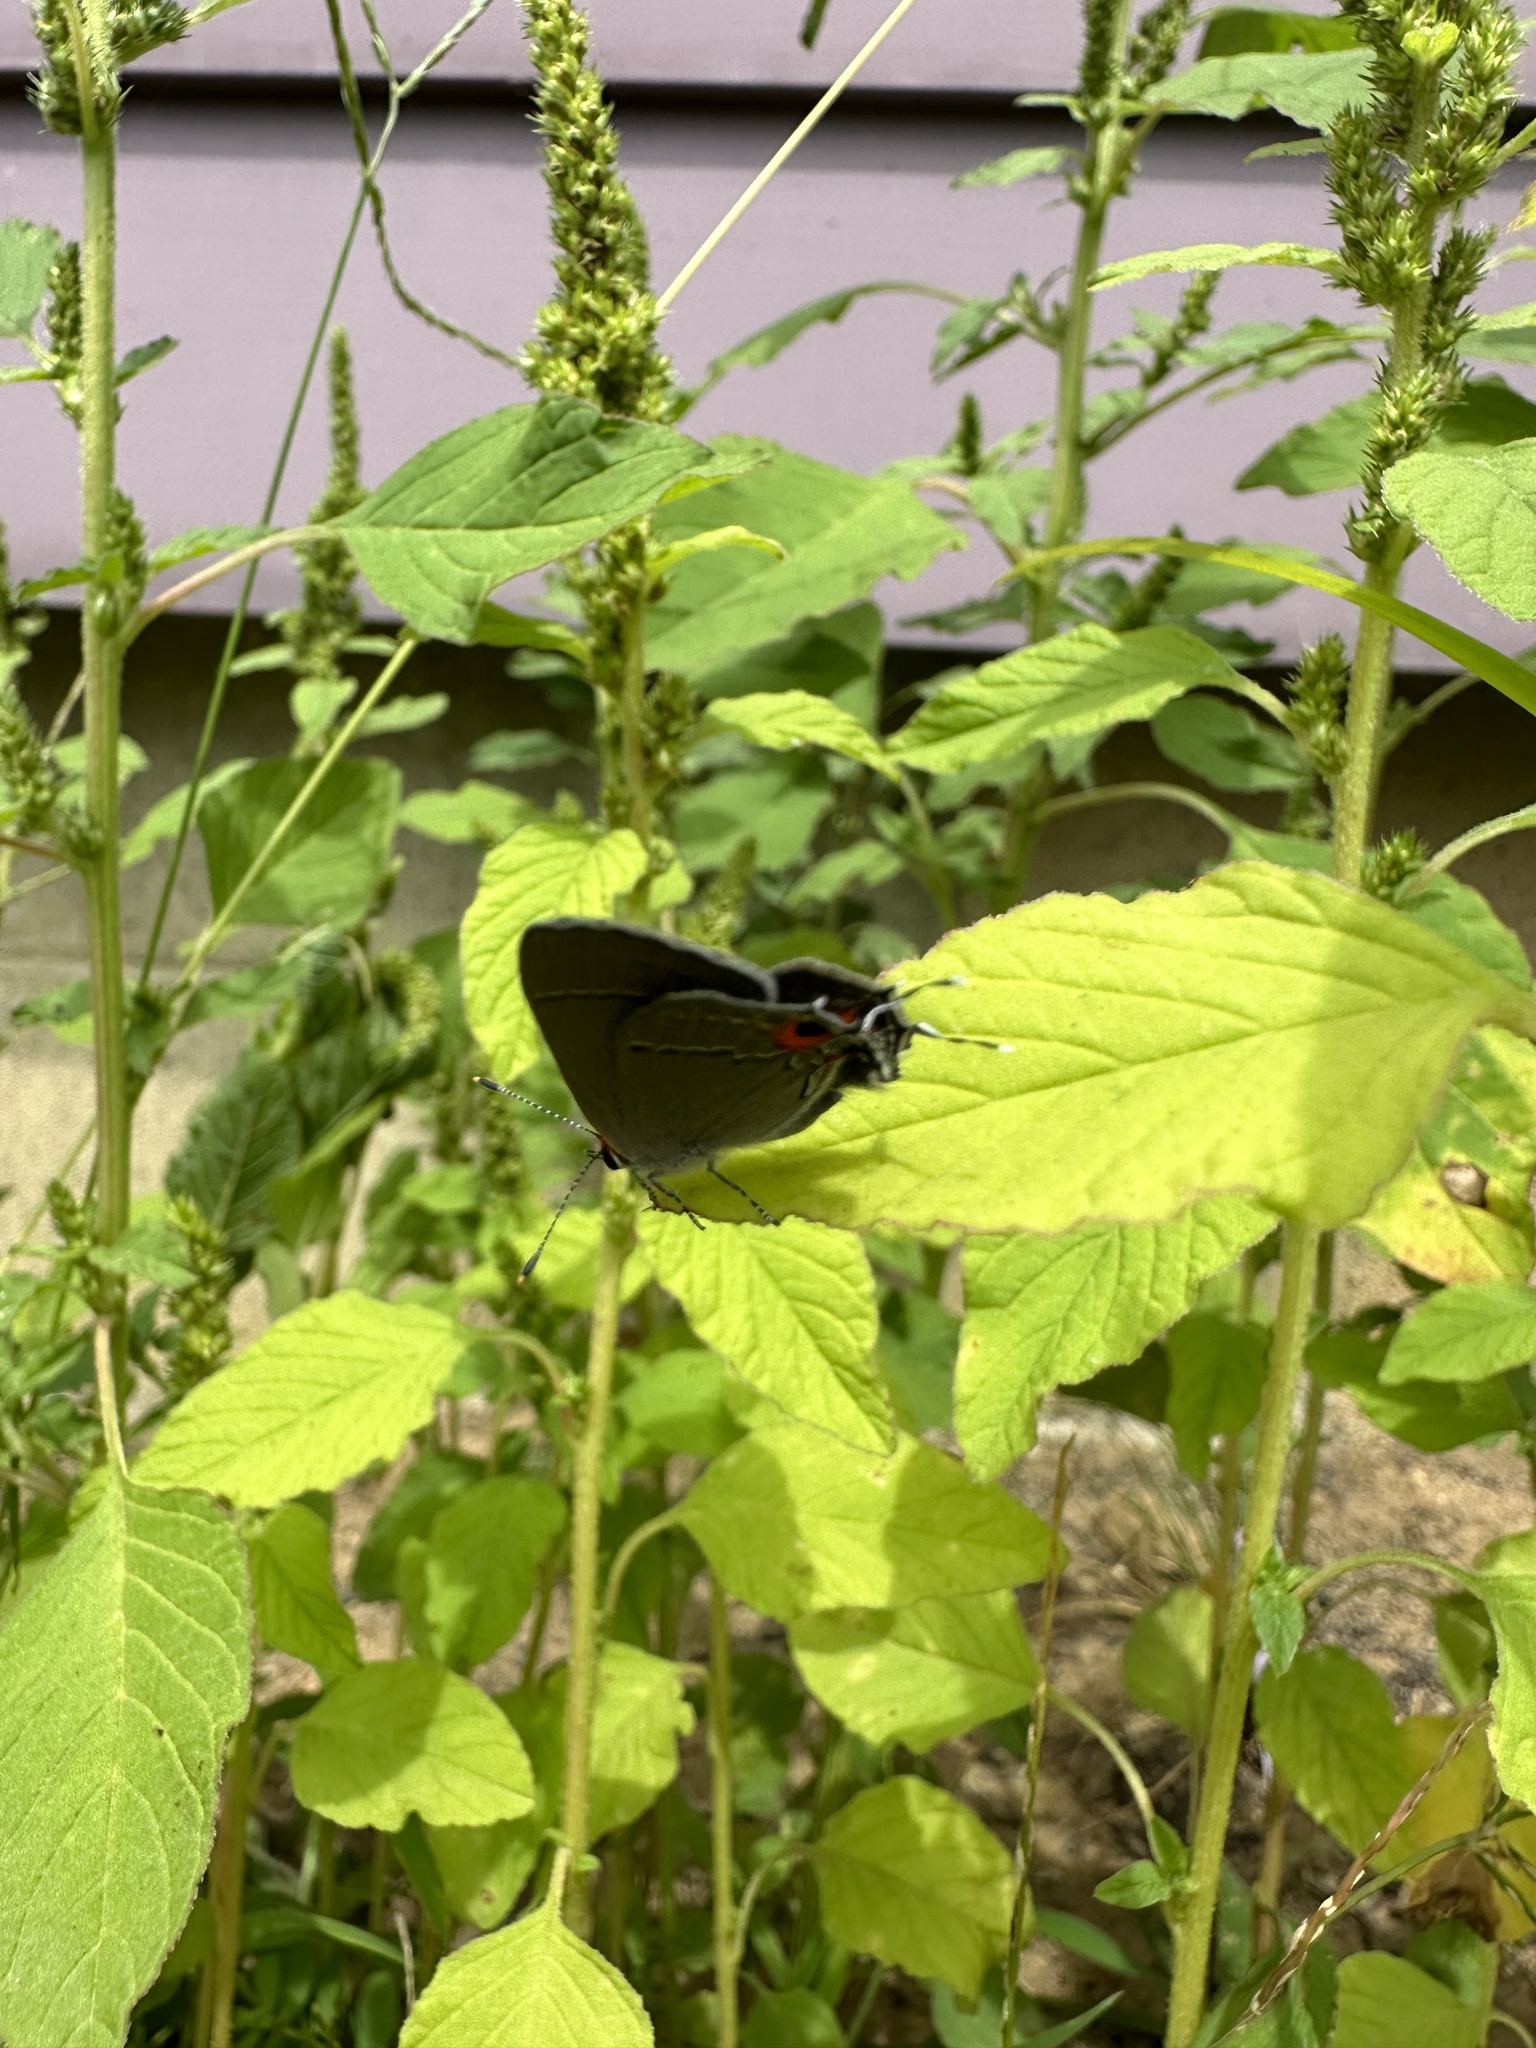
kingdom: Animalia
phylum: Arthropoda
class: Insecta
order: Lepidoptera
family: Lycaenidae
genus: Strymon
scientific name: Strymon melinus
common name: Gray hairstreak
